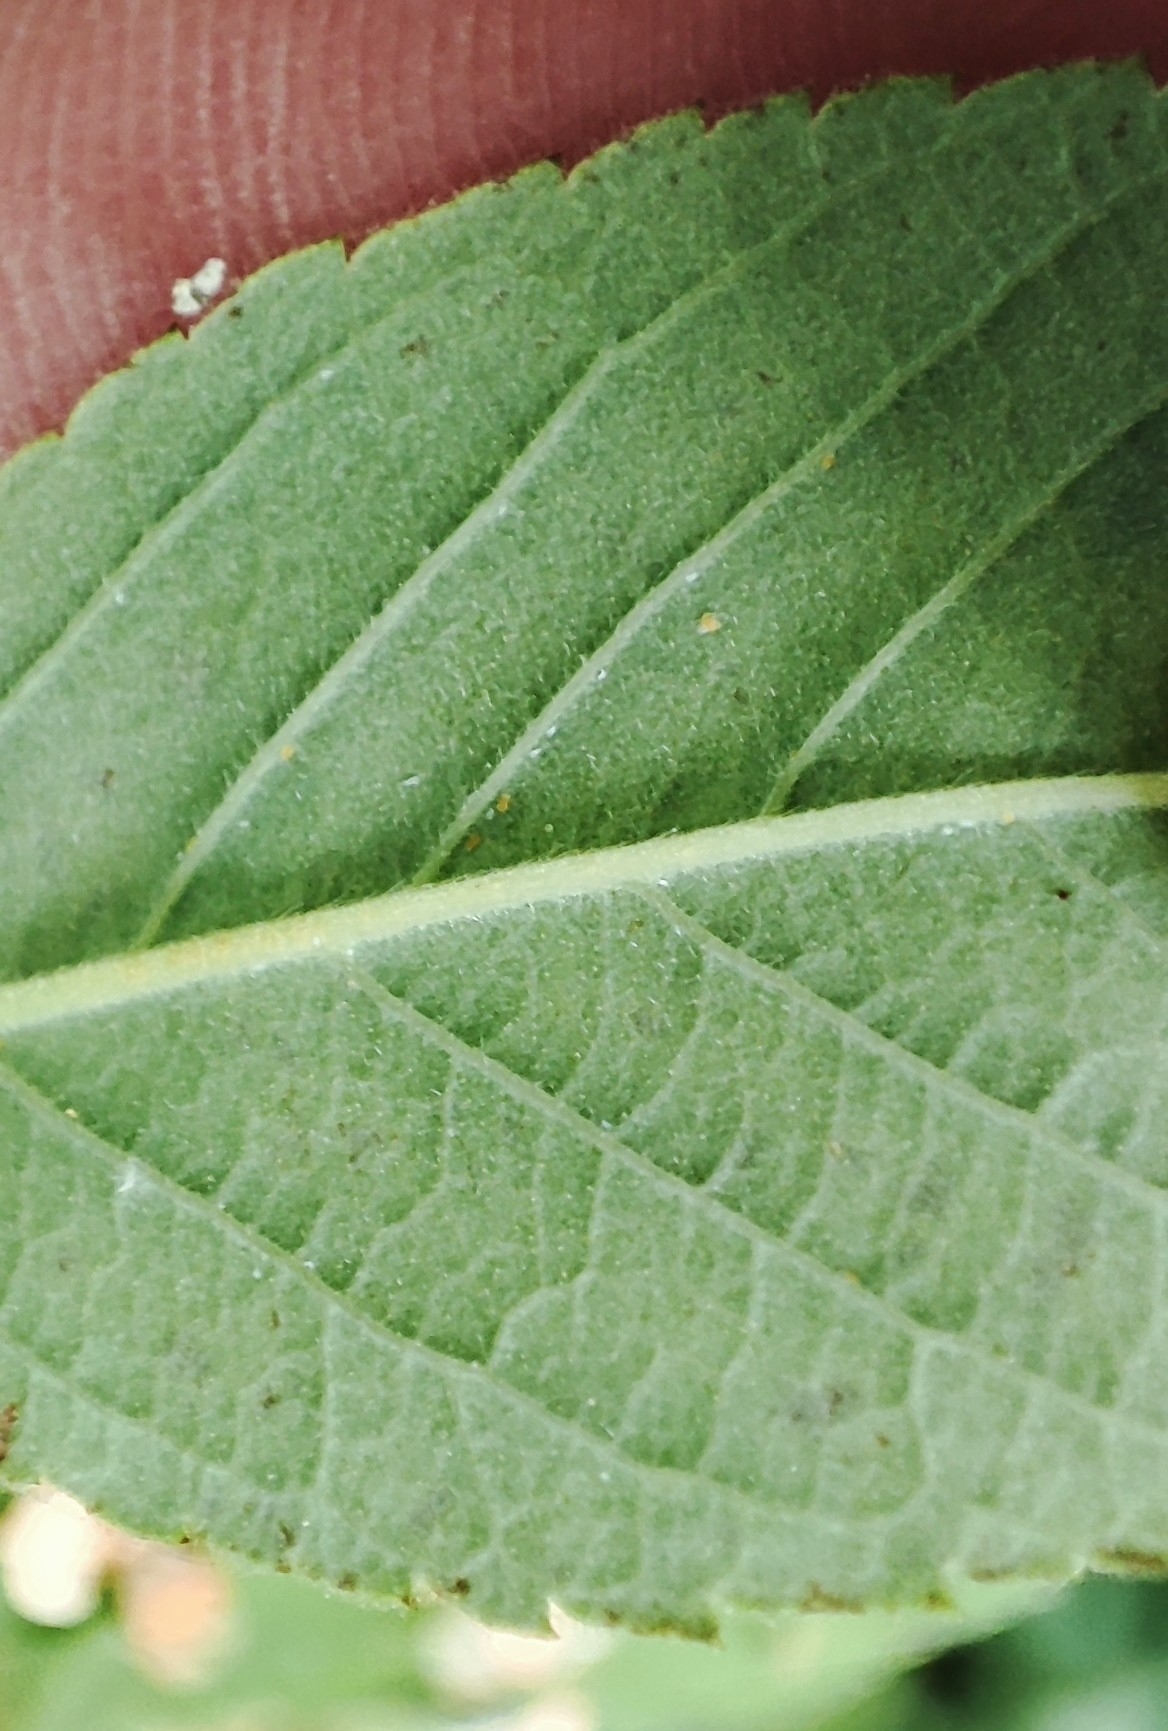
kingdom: Plantae
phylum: Tracheophyta
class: Magnoliopsida
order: Rosales
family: Rosaceae
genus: Rosa
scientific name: Rosa majalis
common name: Cinnamon rose
